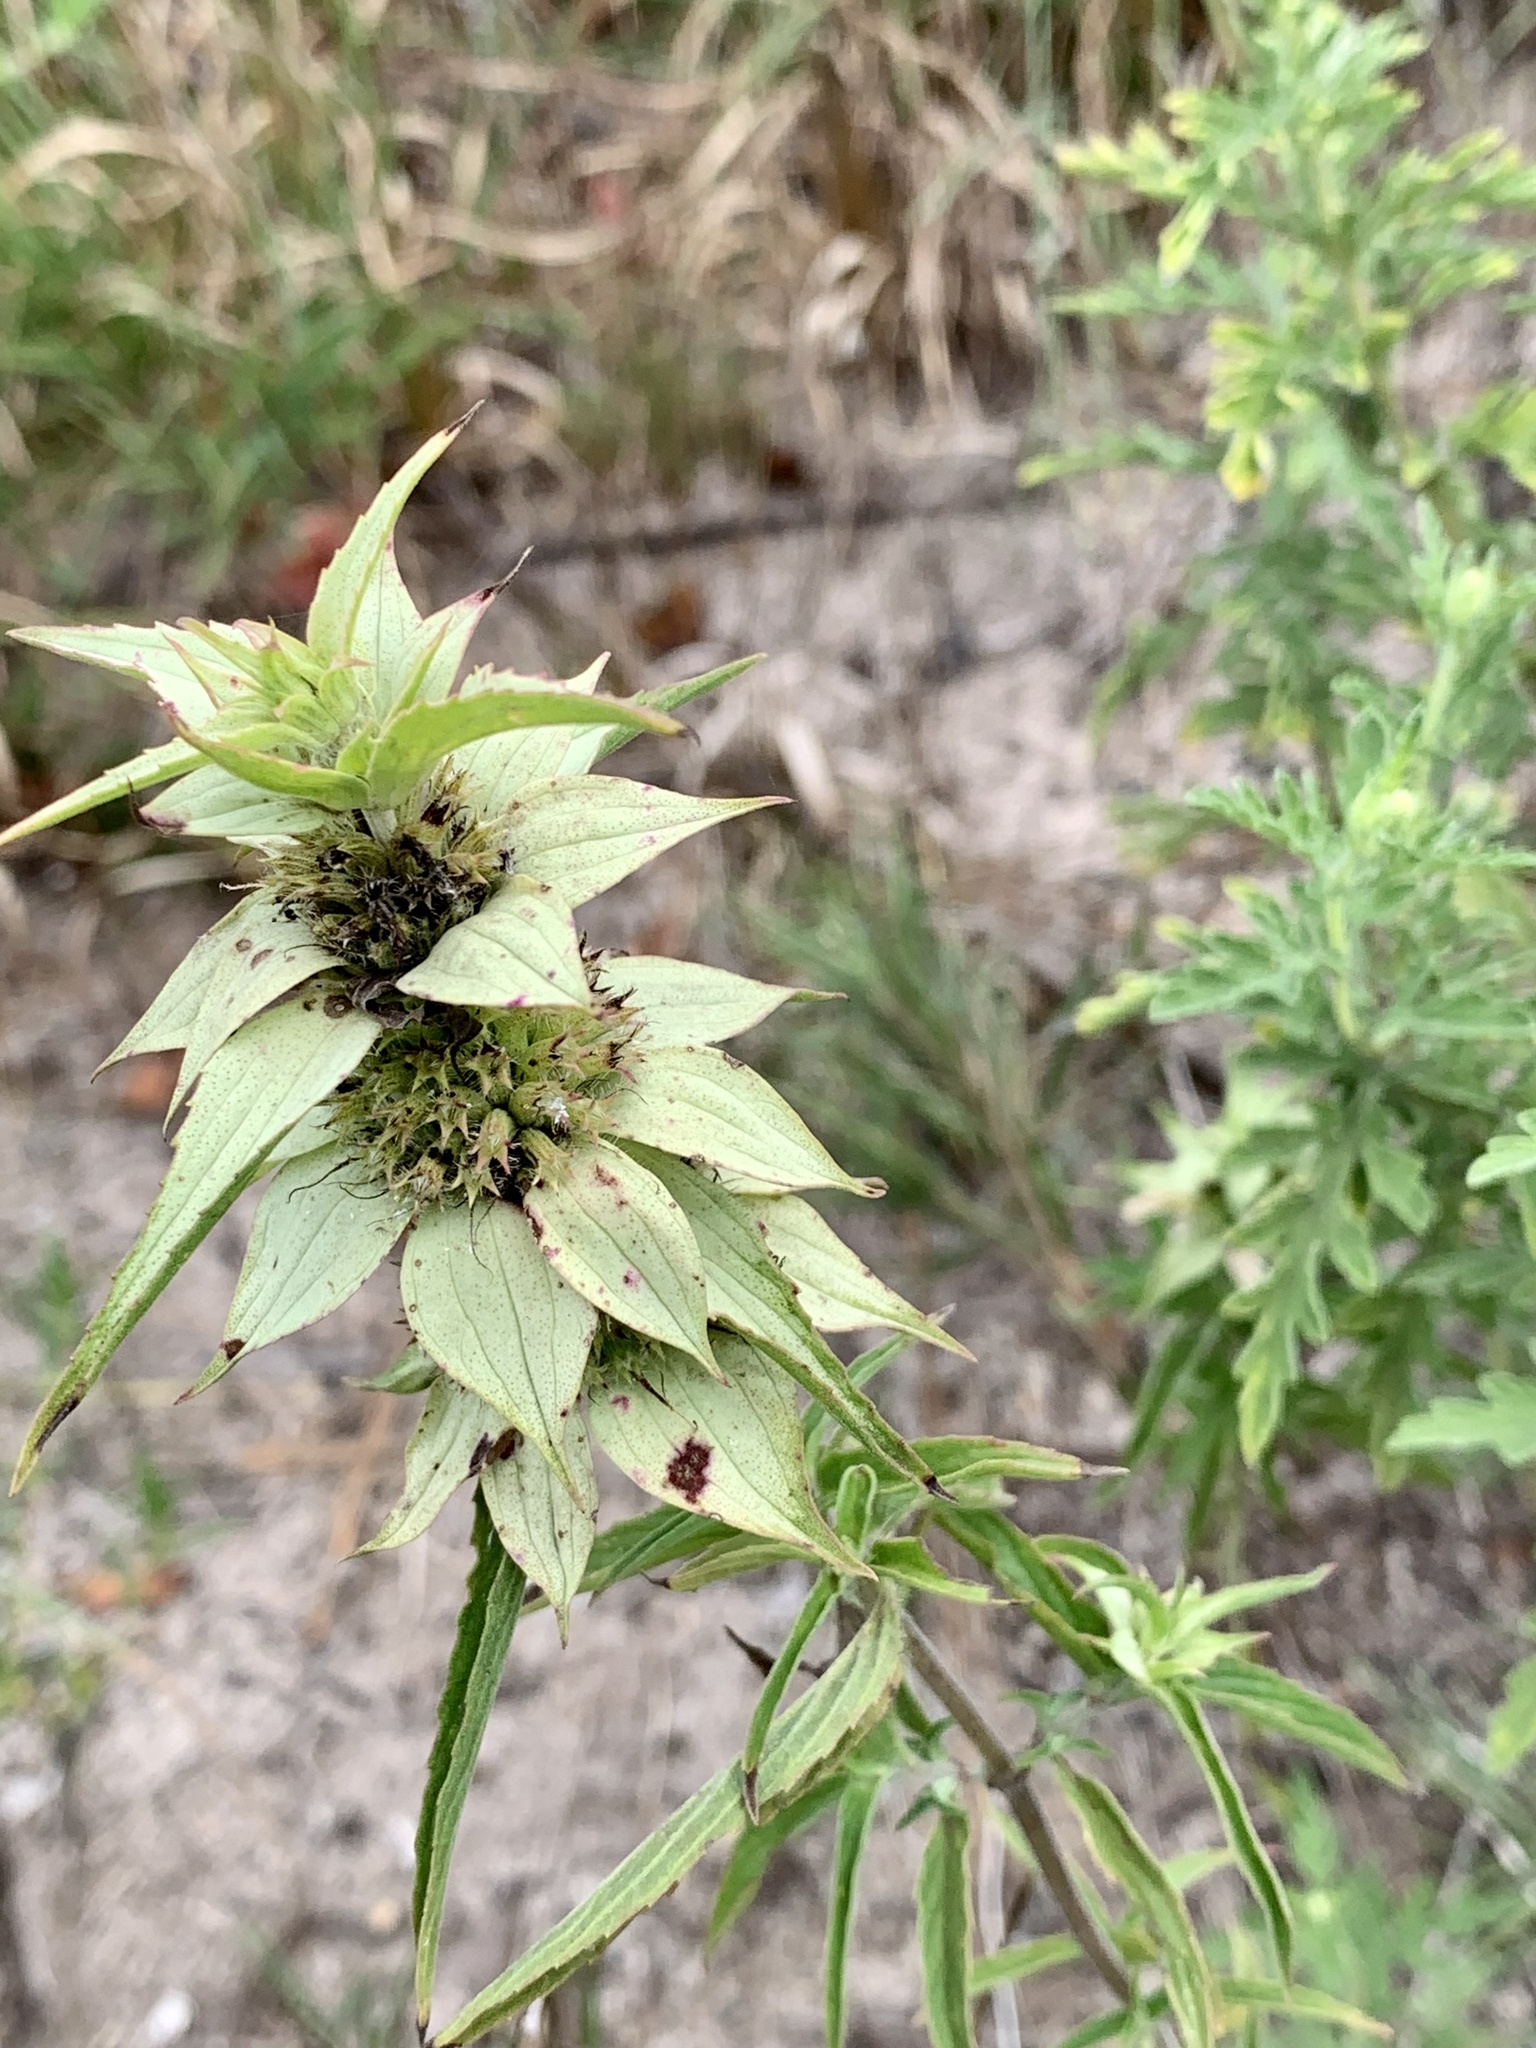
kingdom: Plantae
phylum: Tracheophyta
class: Magnoliopsida
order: Lamiales
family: Lamiaceae
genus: Monarda
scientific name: Monarda punctata
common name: Dotted monarda
